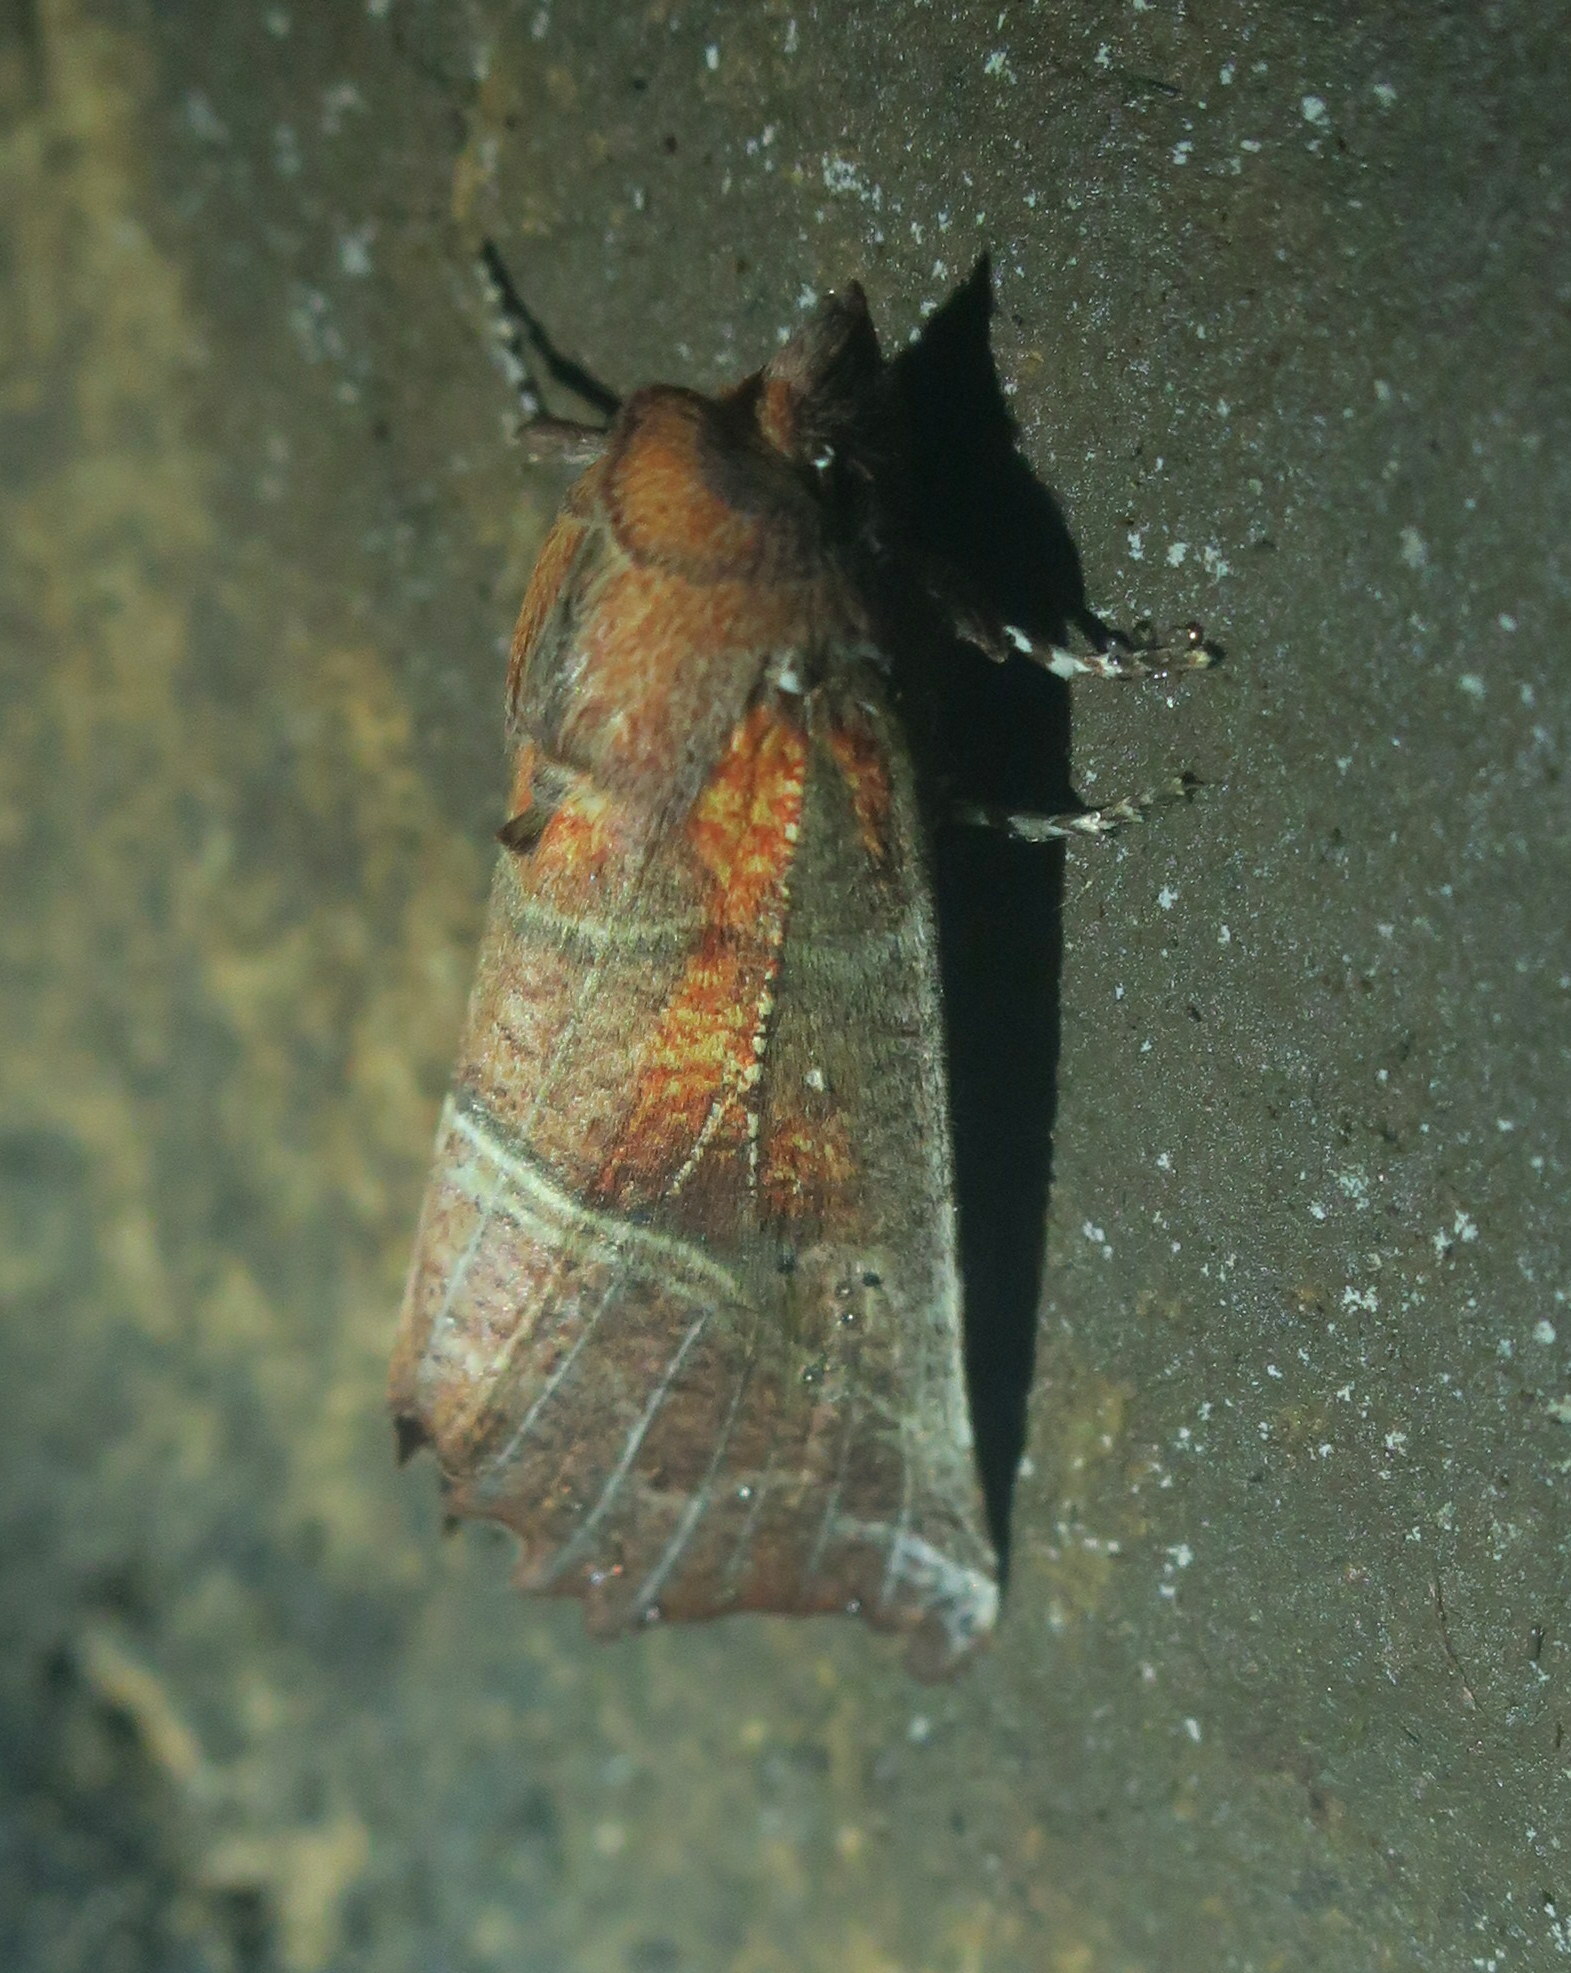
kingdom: Animalia
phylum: Arthropoda
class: Insecta
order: Lepidoptera
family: Erebidae
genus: Scoliopteryx
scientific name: Scoliopteryx libatrix
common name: Herald
